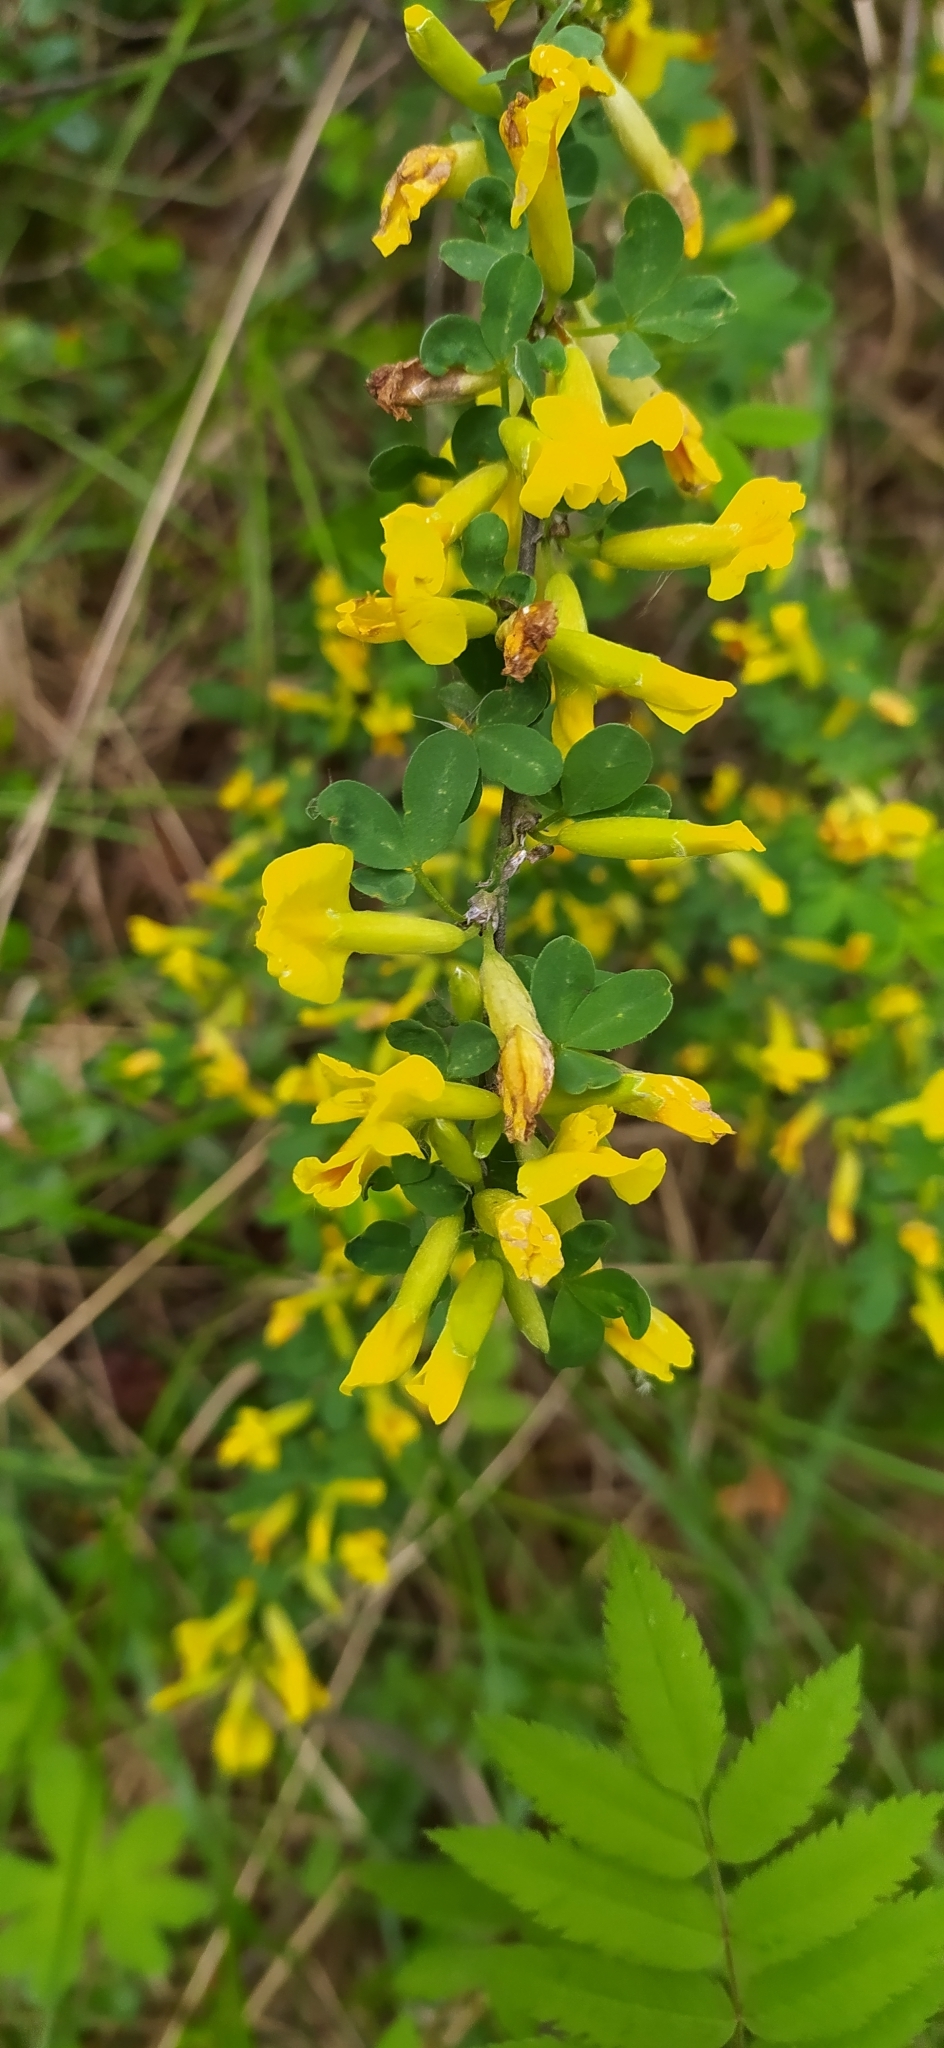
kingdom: Plantae
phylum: Tracheophyta
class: Magnoliopsida
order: Fabales
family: Fabaceae
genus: Chamaecytisus
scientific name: Chamaecytisus ruthenicus
